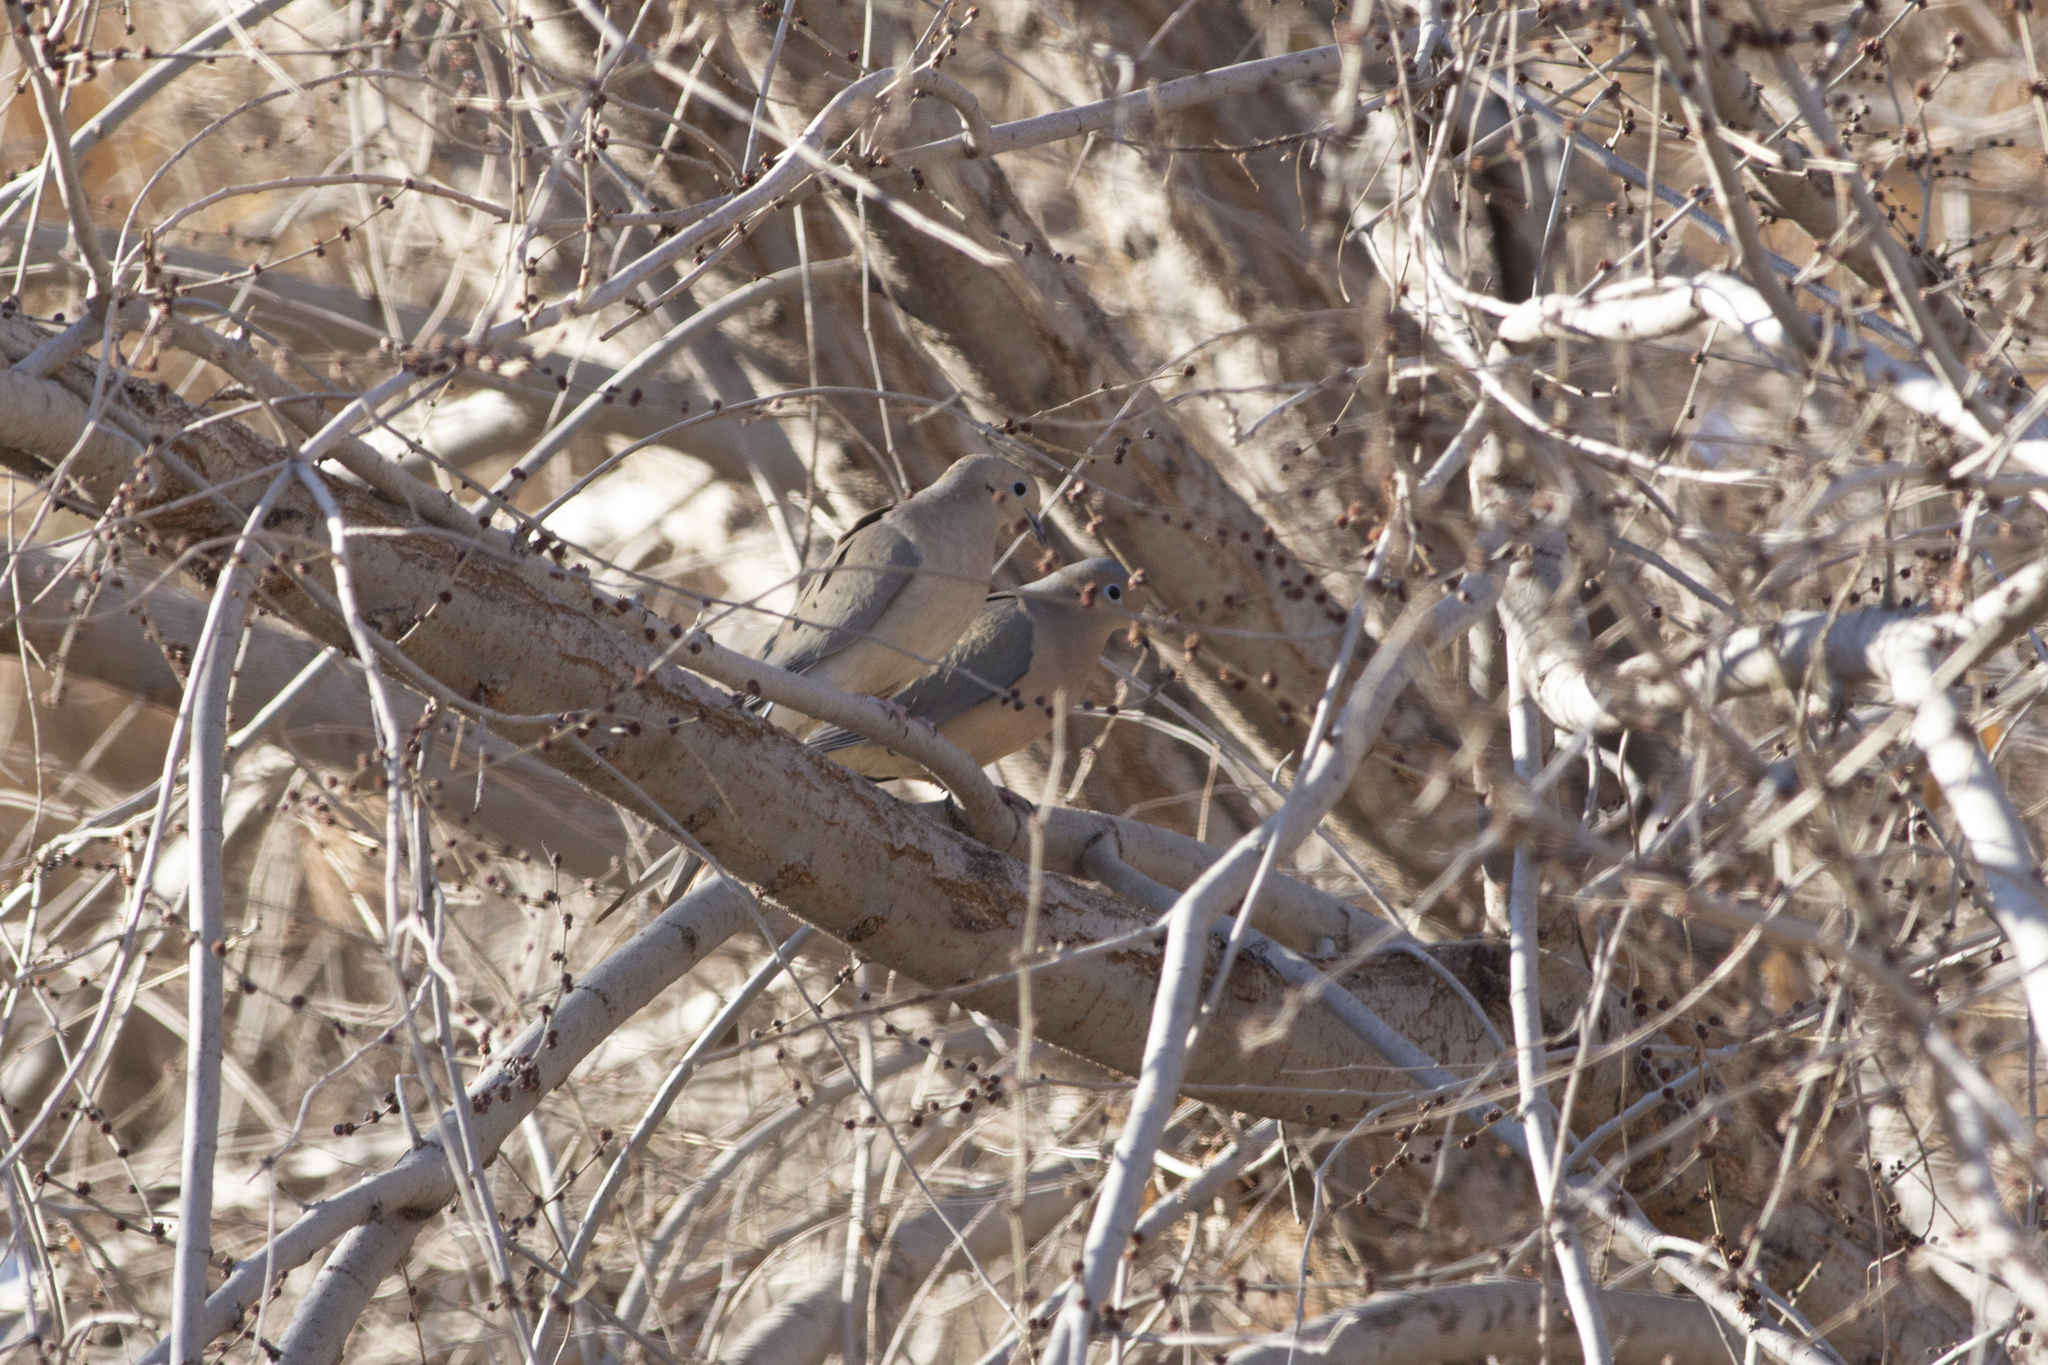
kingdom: Animalia
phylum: Chordata
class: Aves
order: Columbiformes
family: Columbidae
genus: Zenaida
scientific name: Zenaida macroura
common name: Mourning dove
